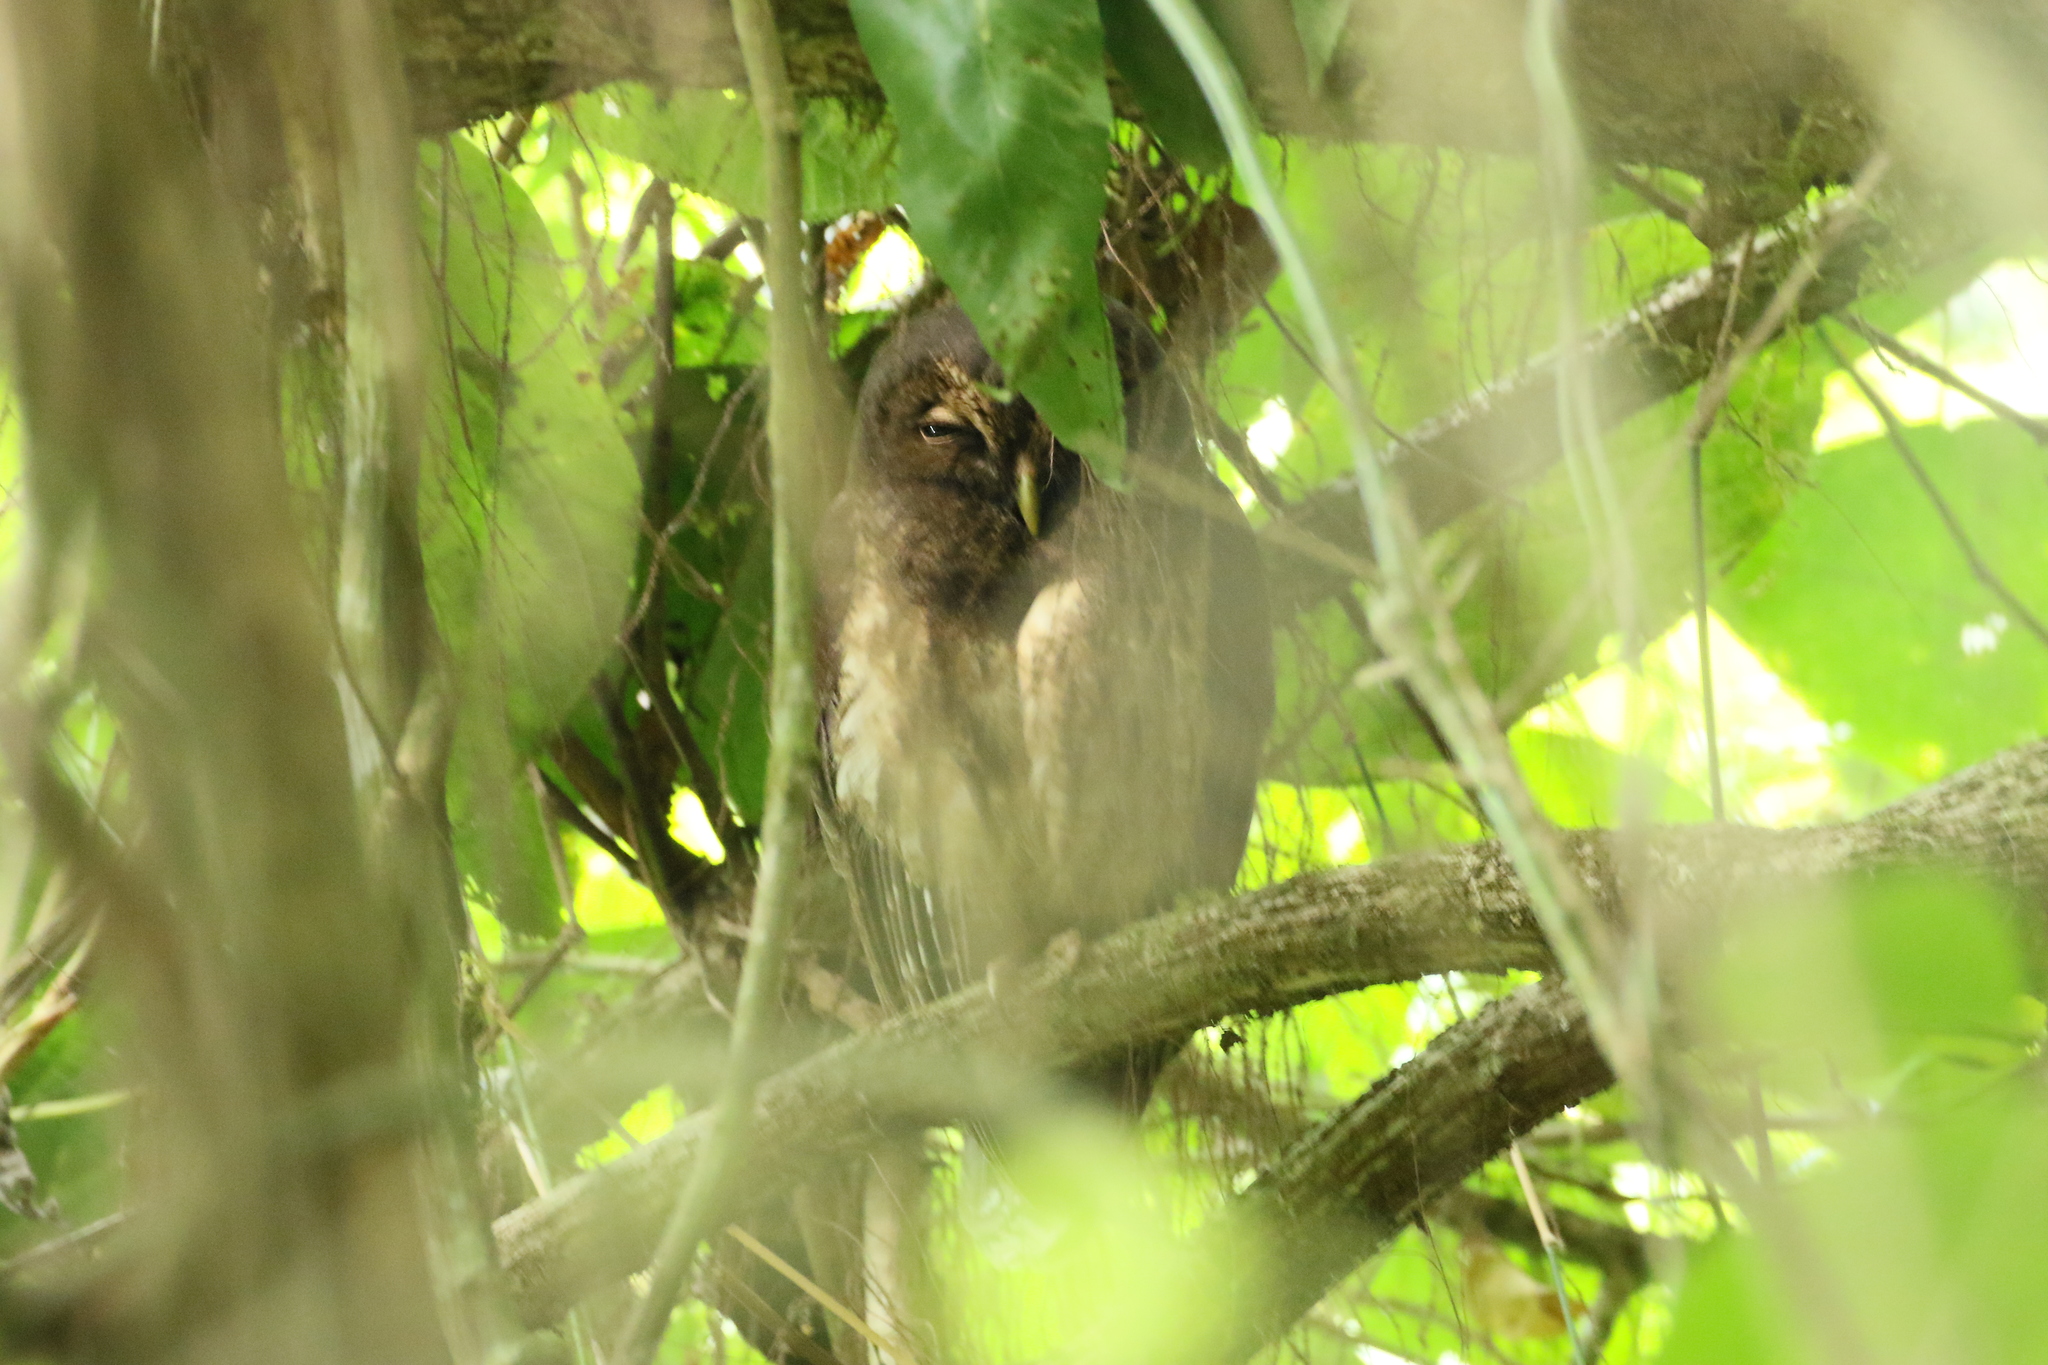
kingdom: Animalia
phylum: Chordata
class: Aves
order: Strigiformes
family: Strigidae
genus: Strix
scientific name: Strix virgata
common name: Mottled owl
